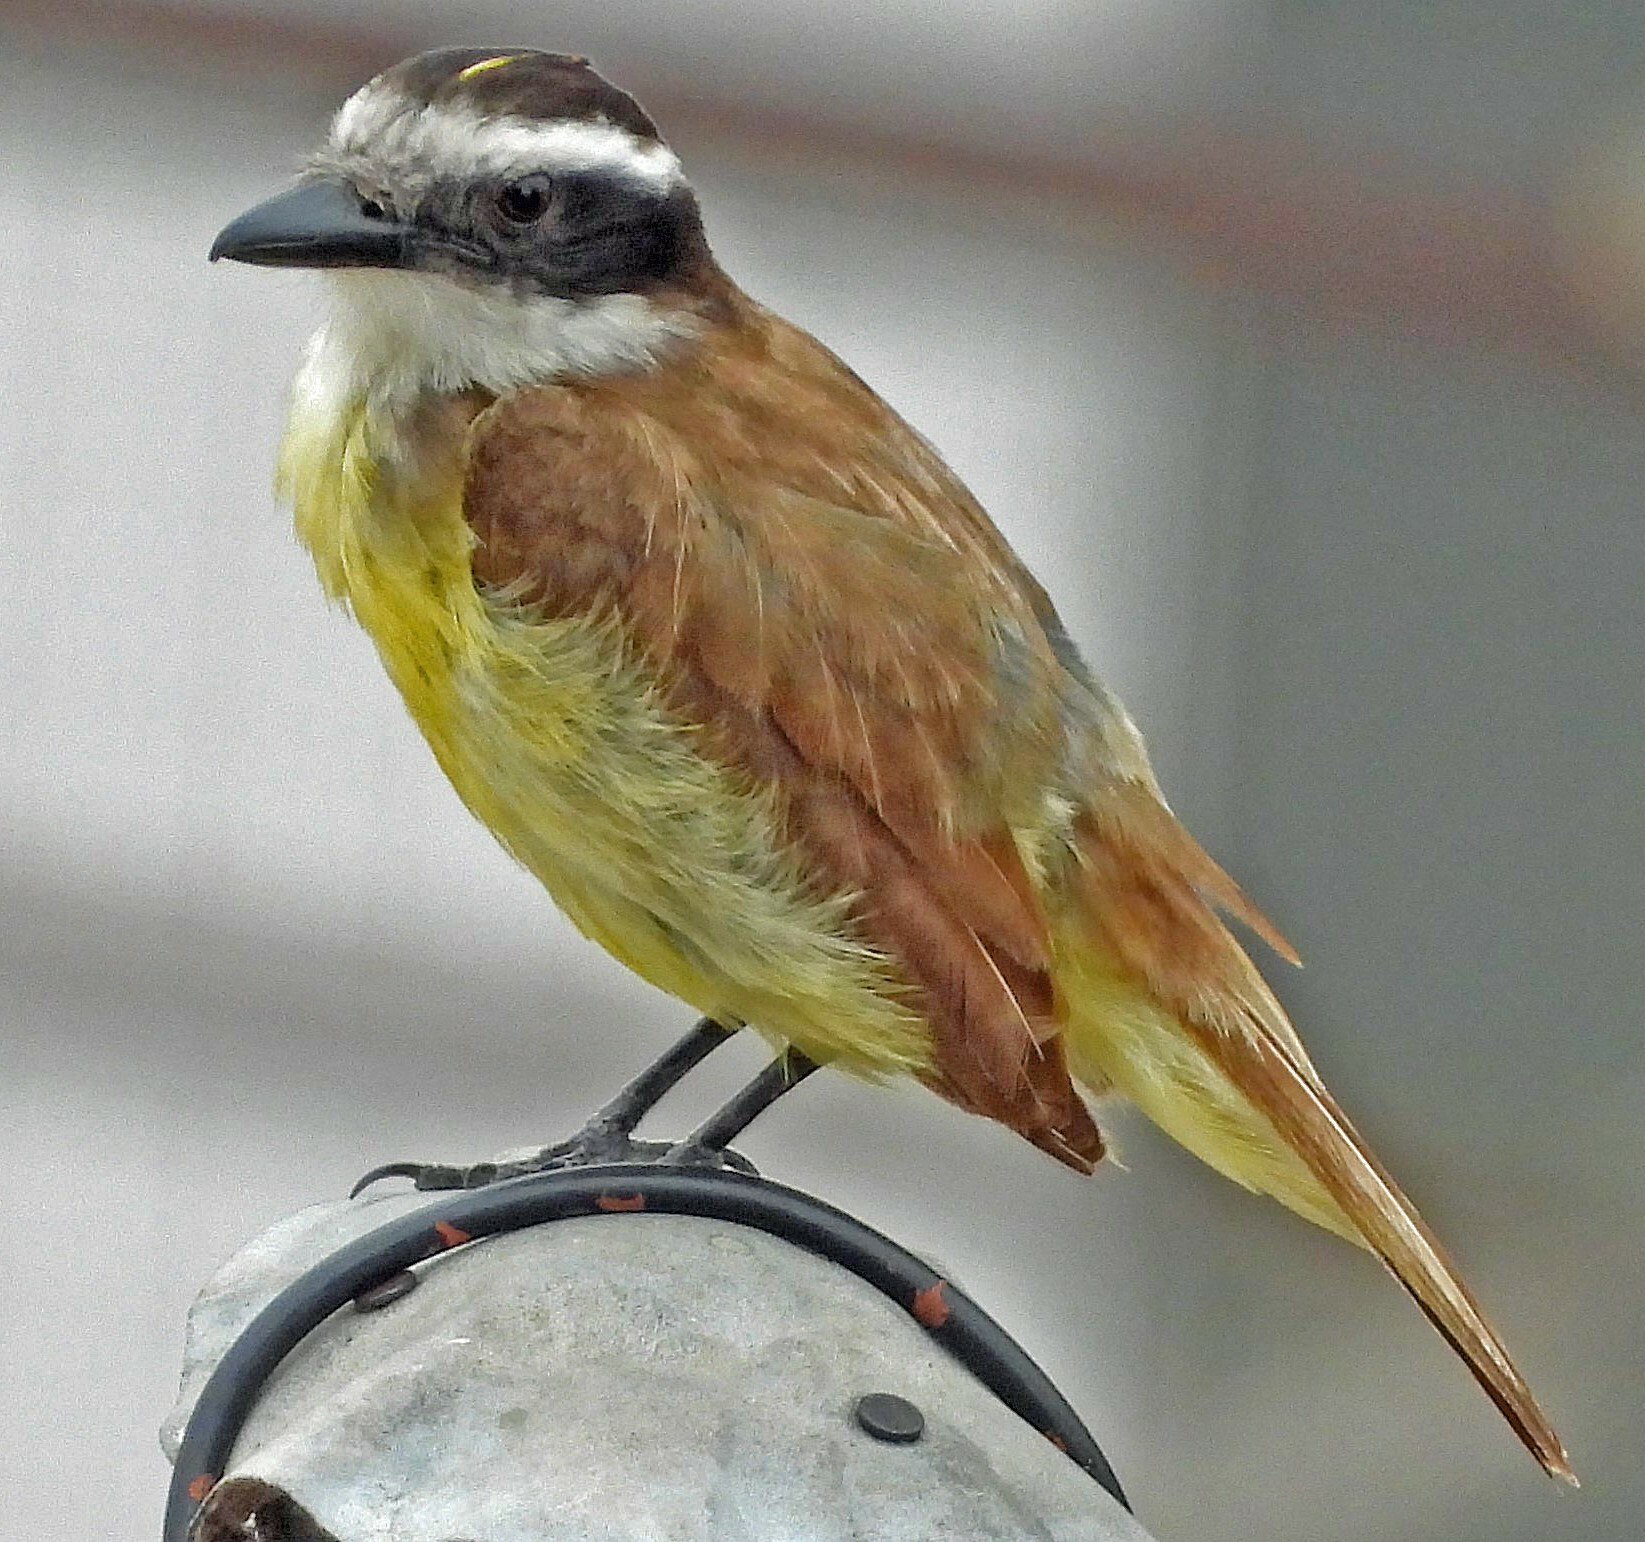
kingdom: Animalia
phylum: Chordata
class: Aves
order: Passeriformes
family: Tyrannidae
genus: Pitangus
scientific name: Pitangus sulphuratus
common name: Great kiskadee
